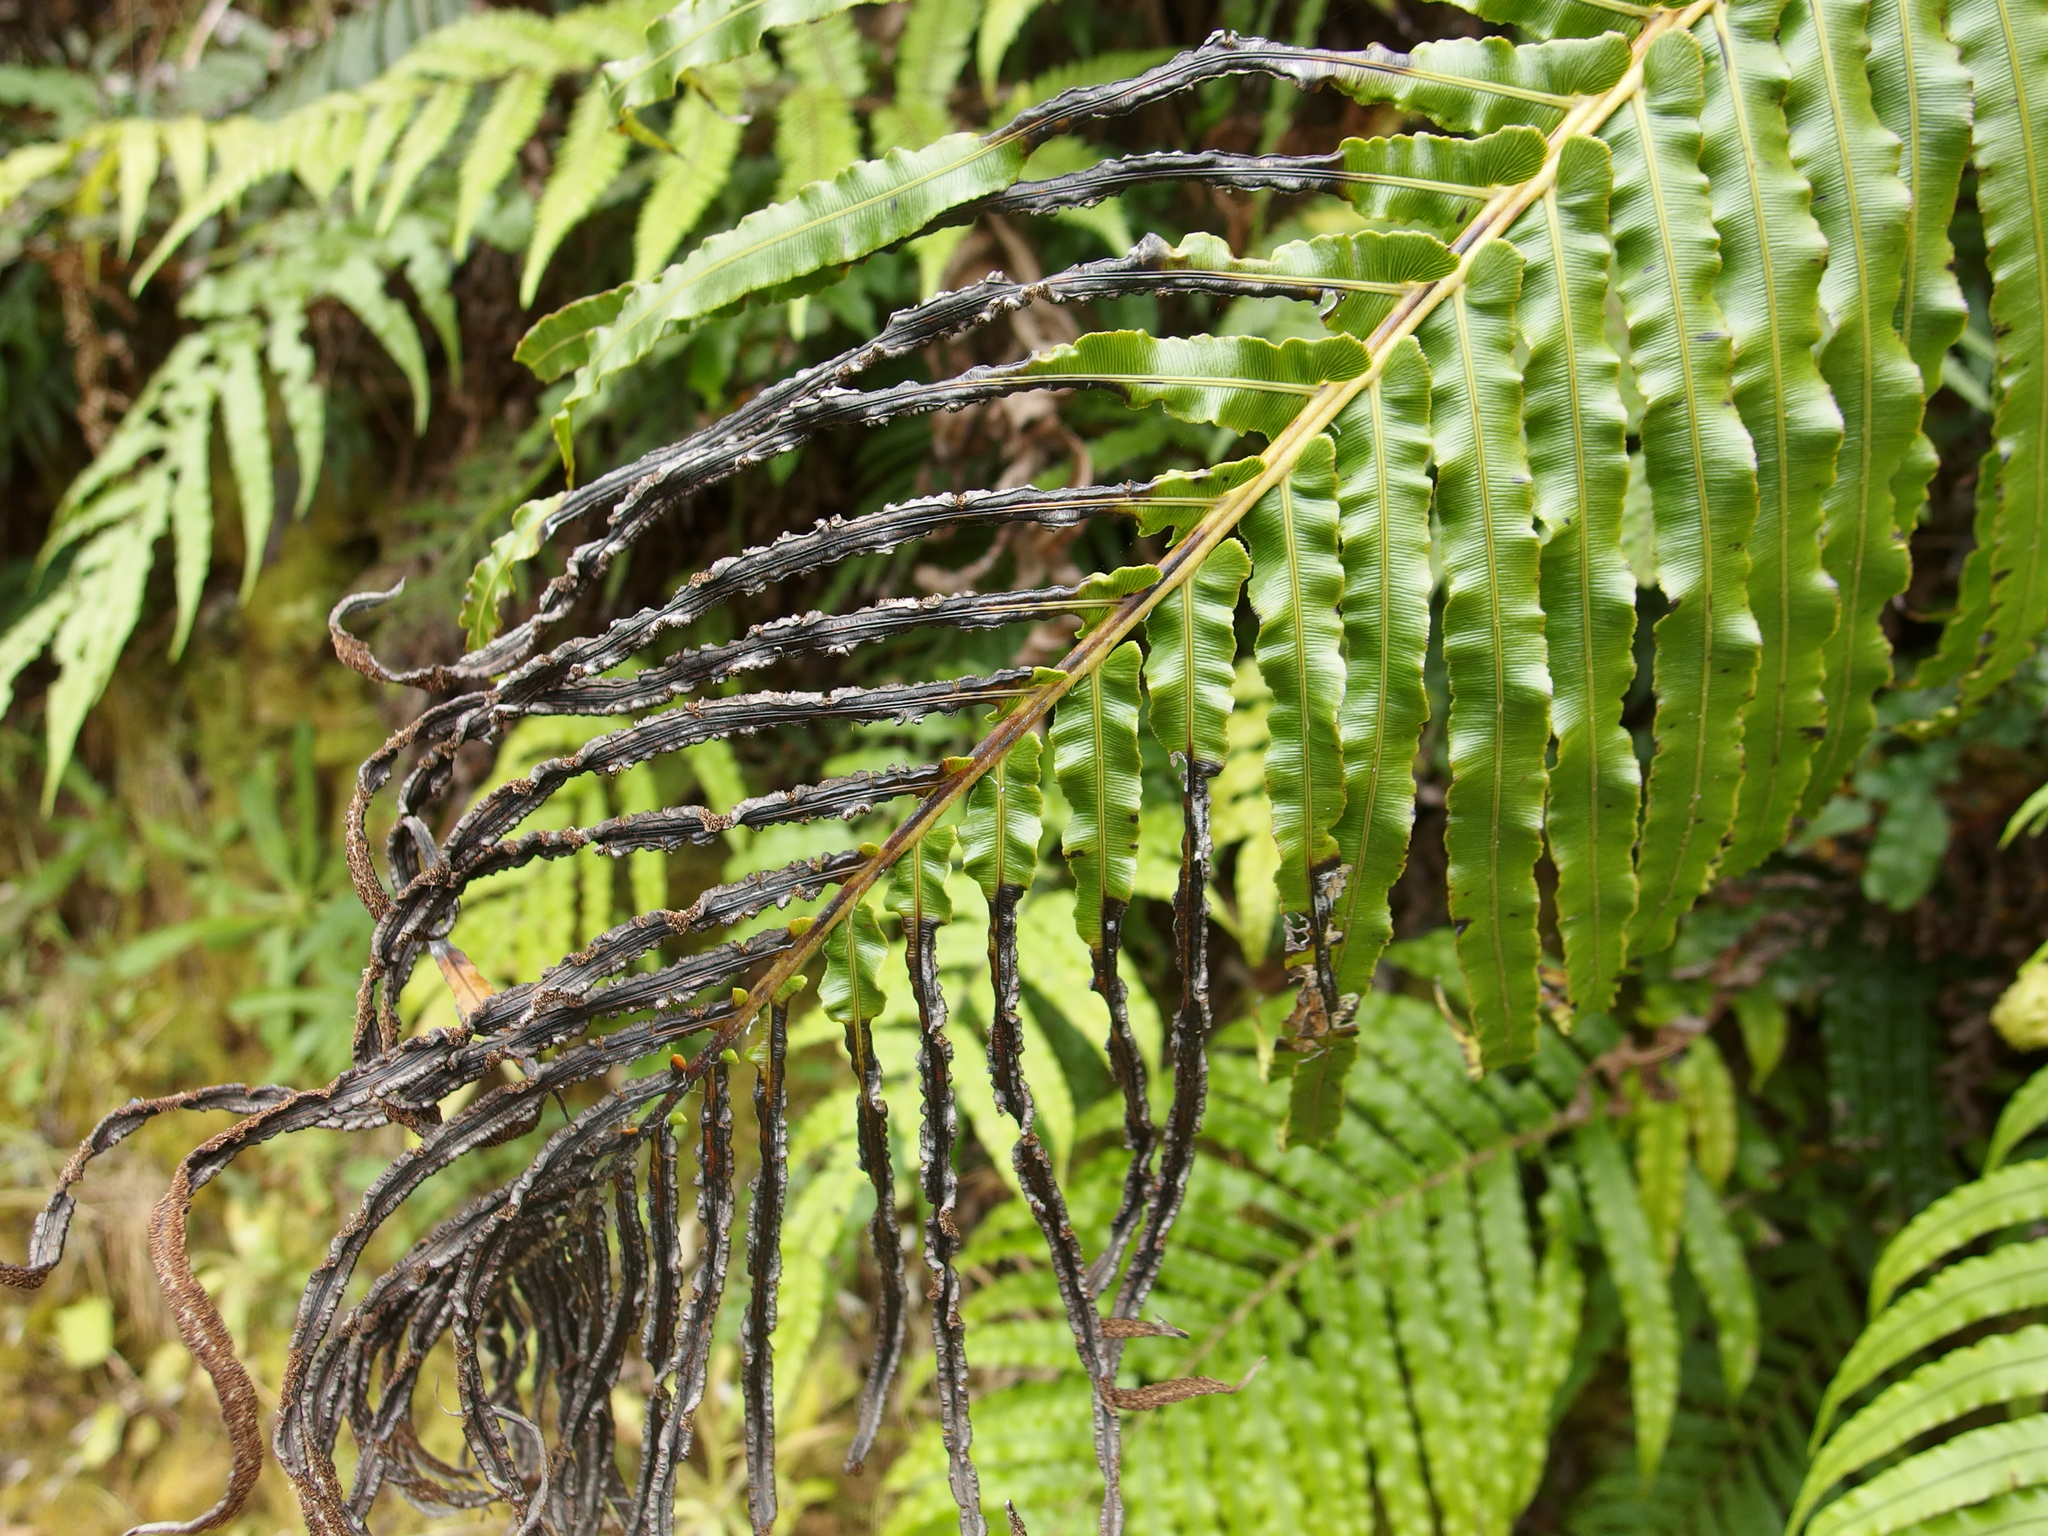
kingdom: Plantae
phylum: Tracheophyta
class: Polypodiopsida
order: Polypodiales
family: Blechnaceae
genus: Parablechnum
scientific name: Parablechnum novae-zelandiae
